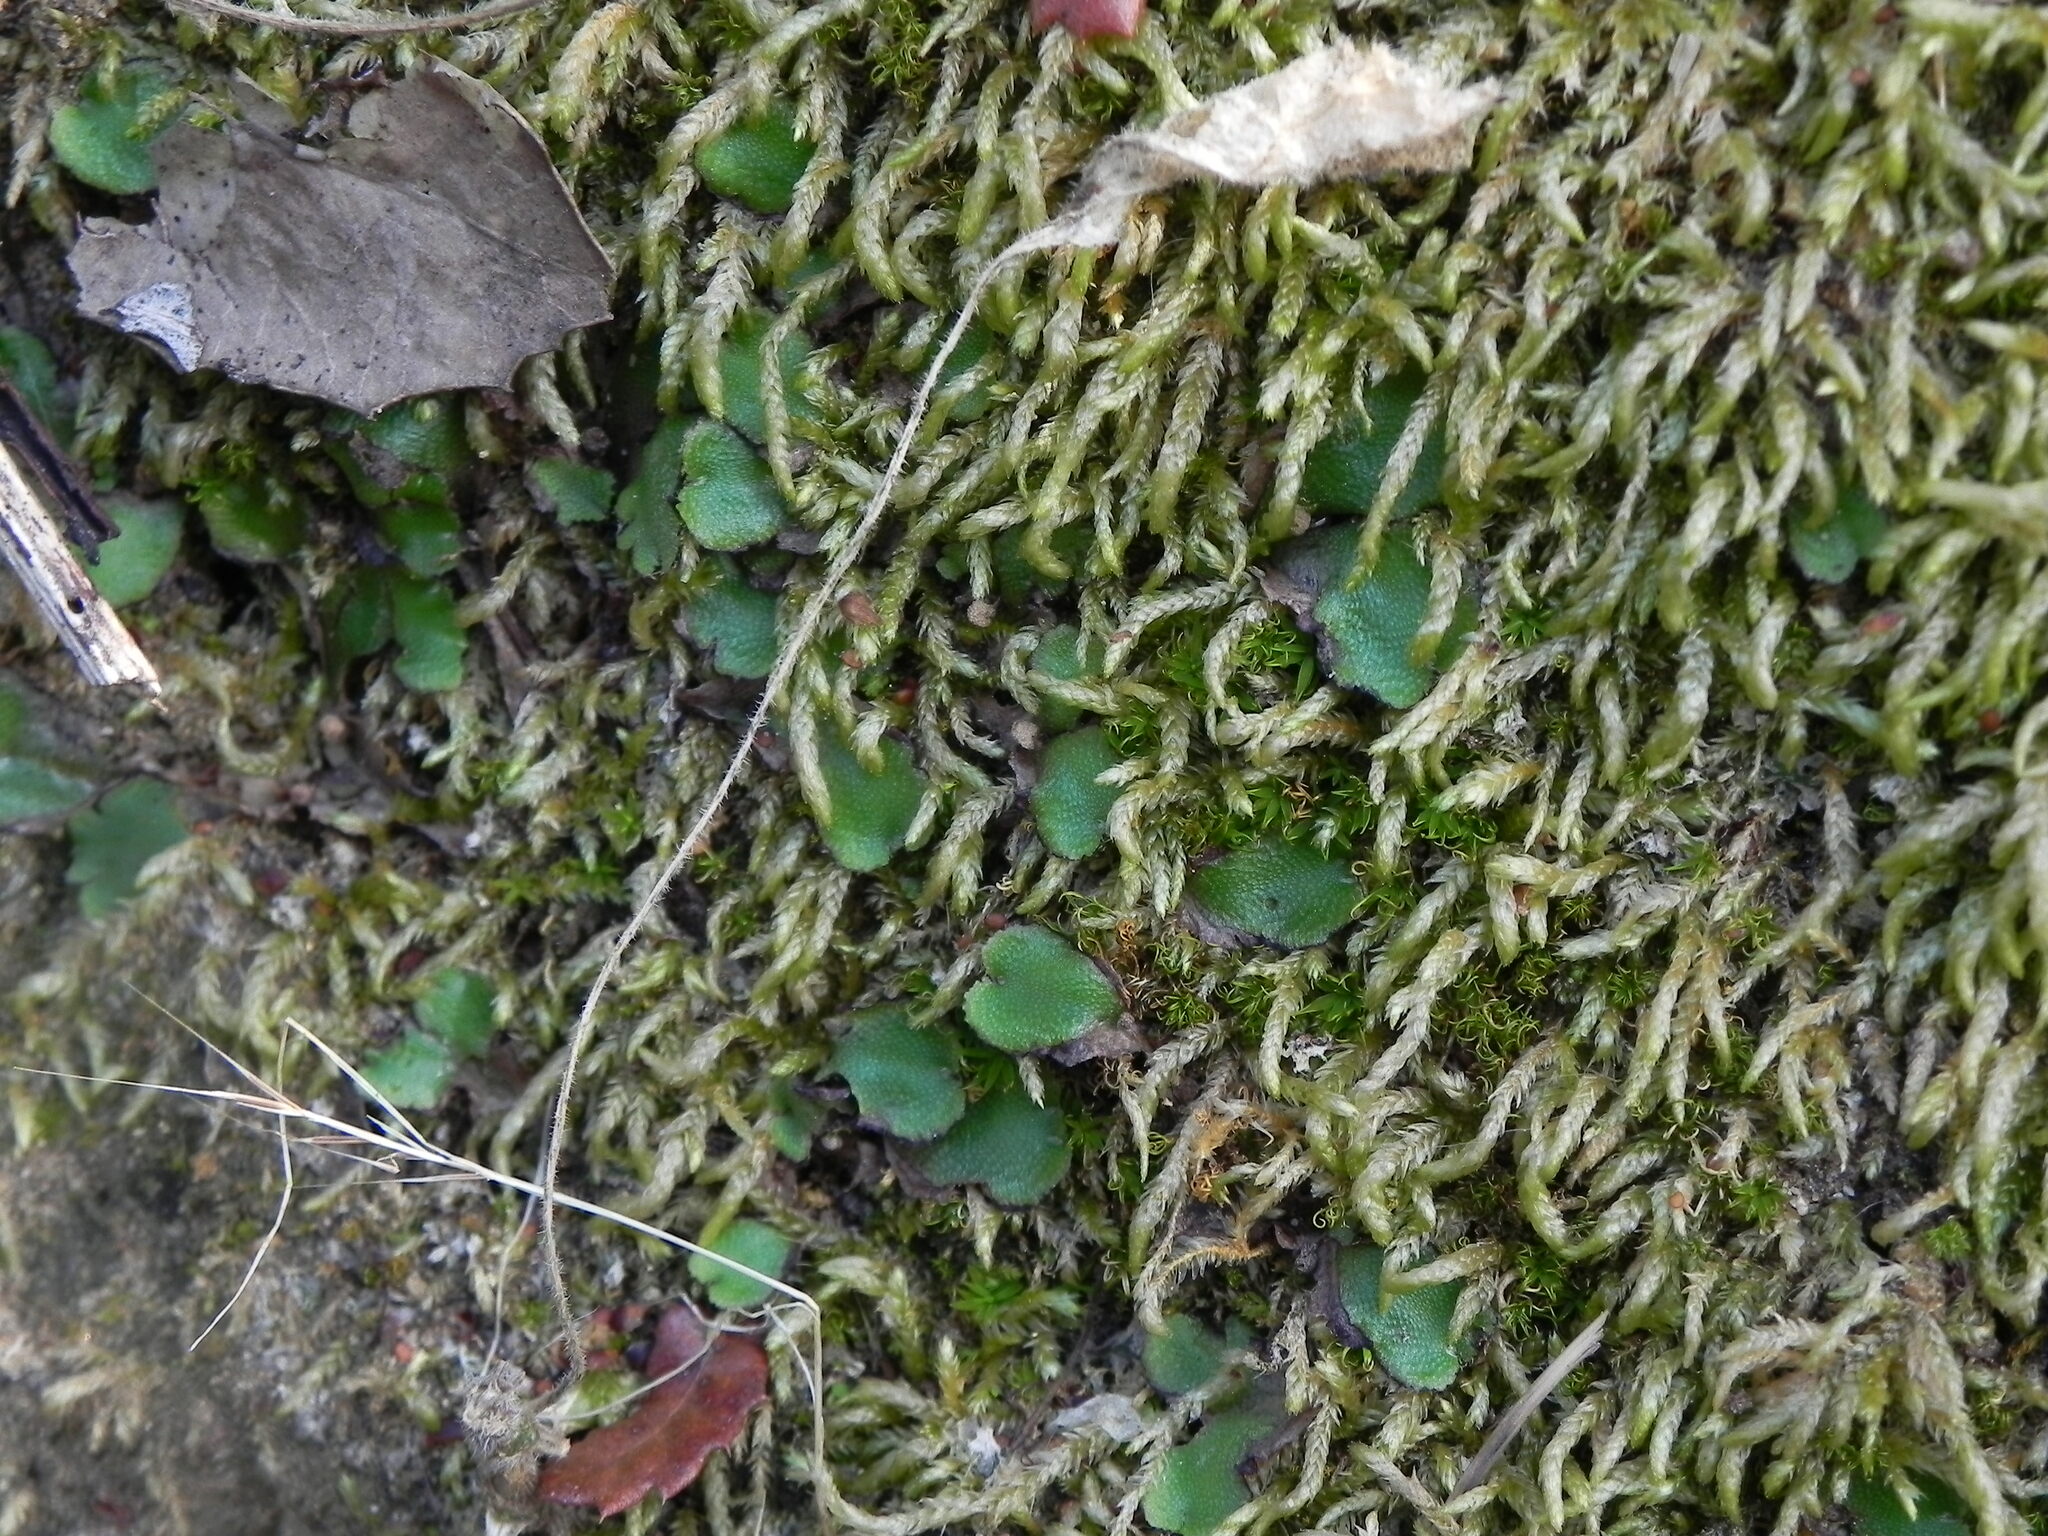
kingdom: Plantae
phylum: Marchantiophyta
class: Marchantiopsida
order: Marchantiales
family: Aytoniaceae
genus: Asterella
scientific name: Asterella californica
